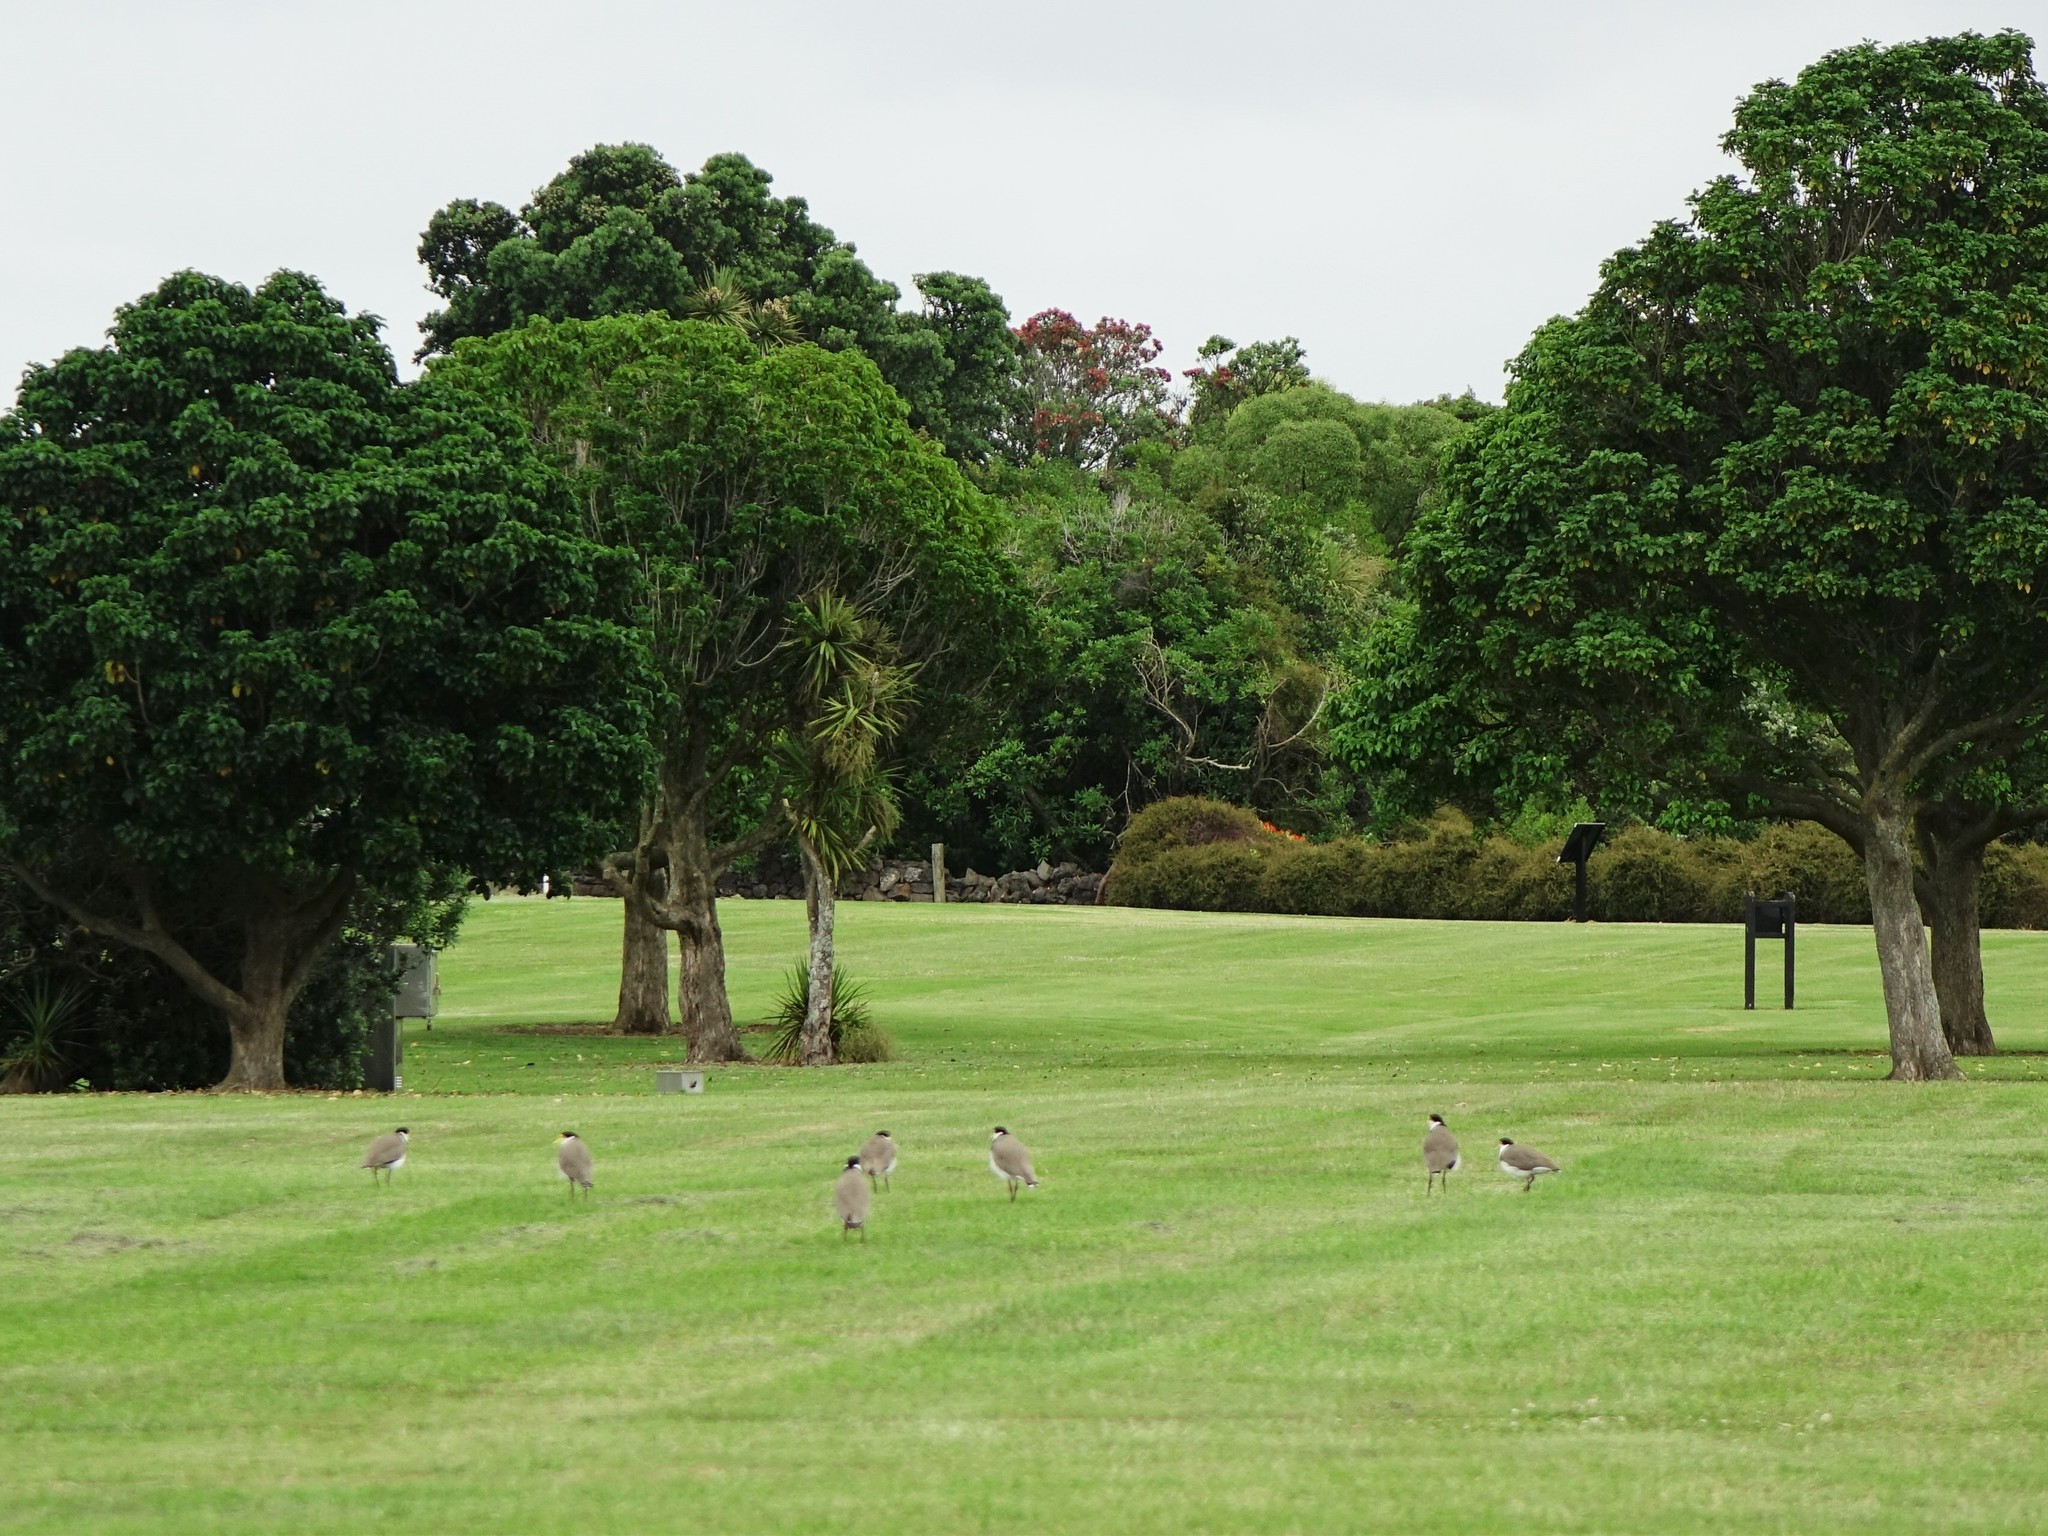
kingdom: Animalia
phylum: Chordata
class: Aves
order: Charadriiformes
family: Charadriidae
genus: Vanellus
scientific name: Vanellus miles
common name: Masked lapwing
